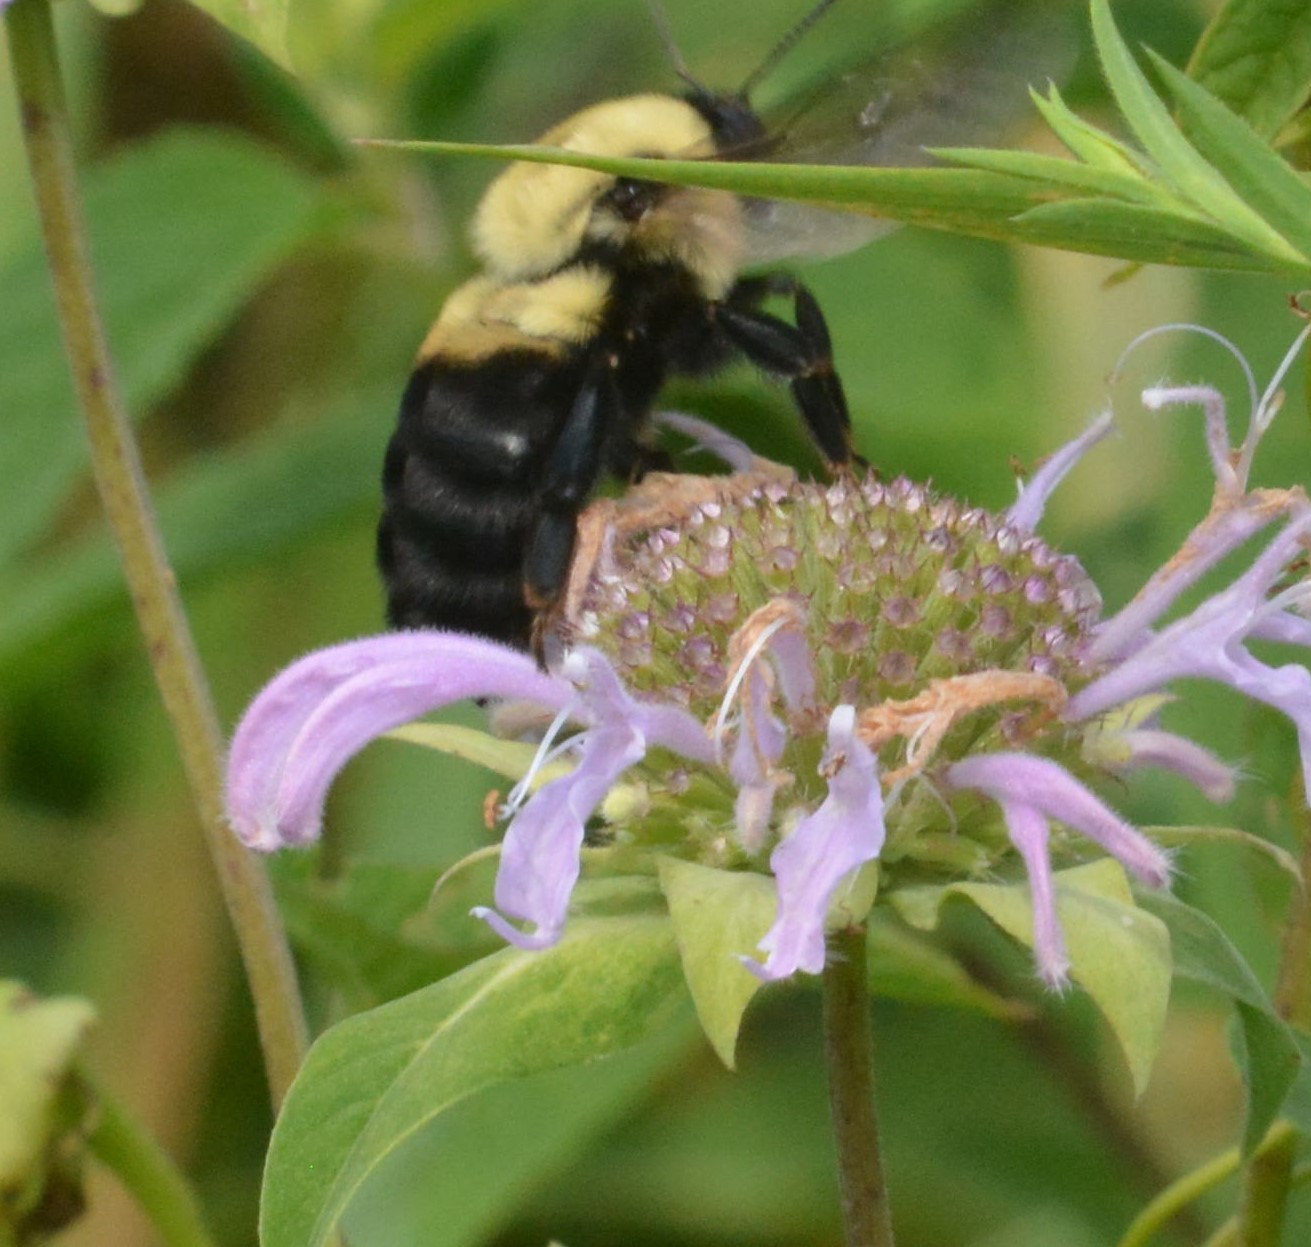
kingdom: Animalia
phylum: Arthropoda
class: Insecta
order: Hymenoptera
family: Apidae
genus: Bombus
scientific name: Bombus griseocollis
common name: Brown-belted bumble bee
